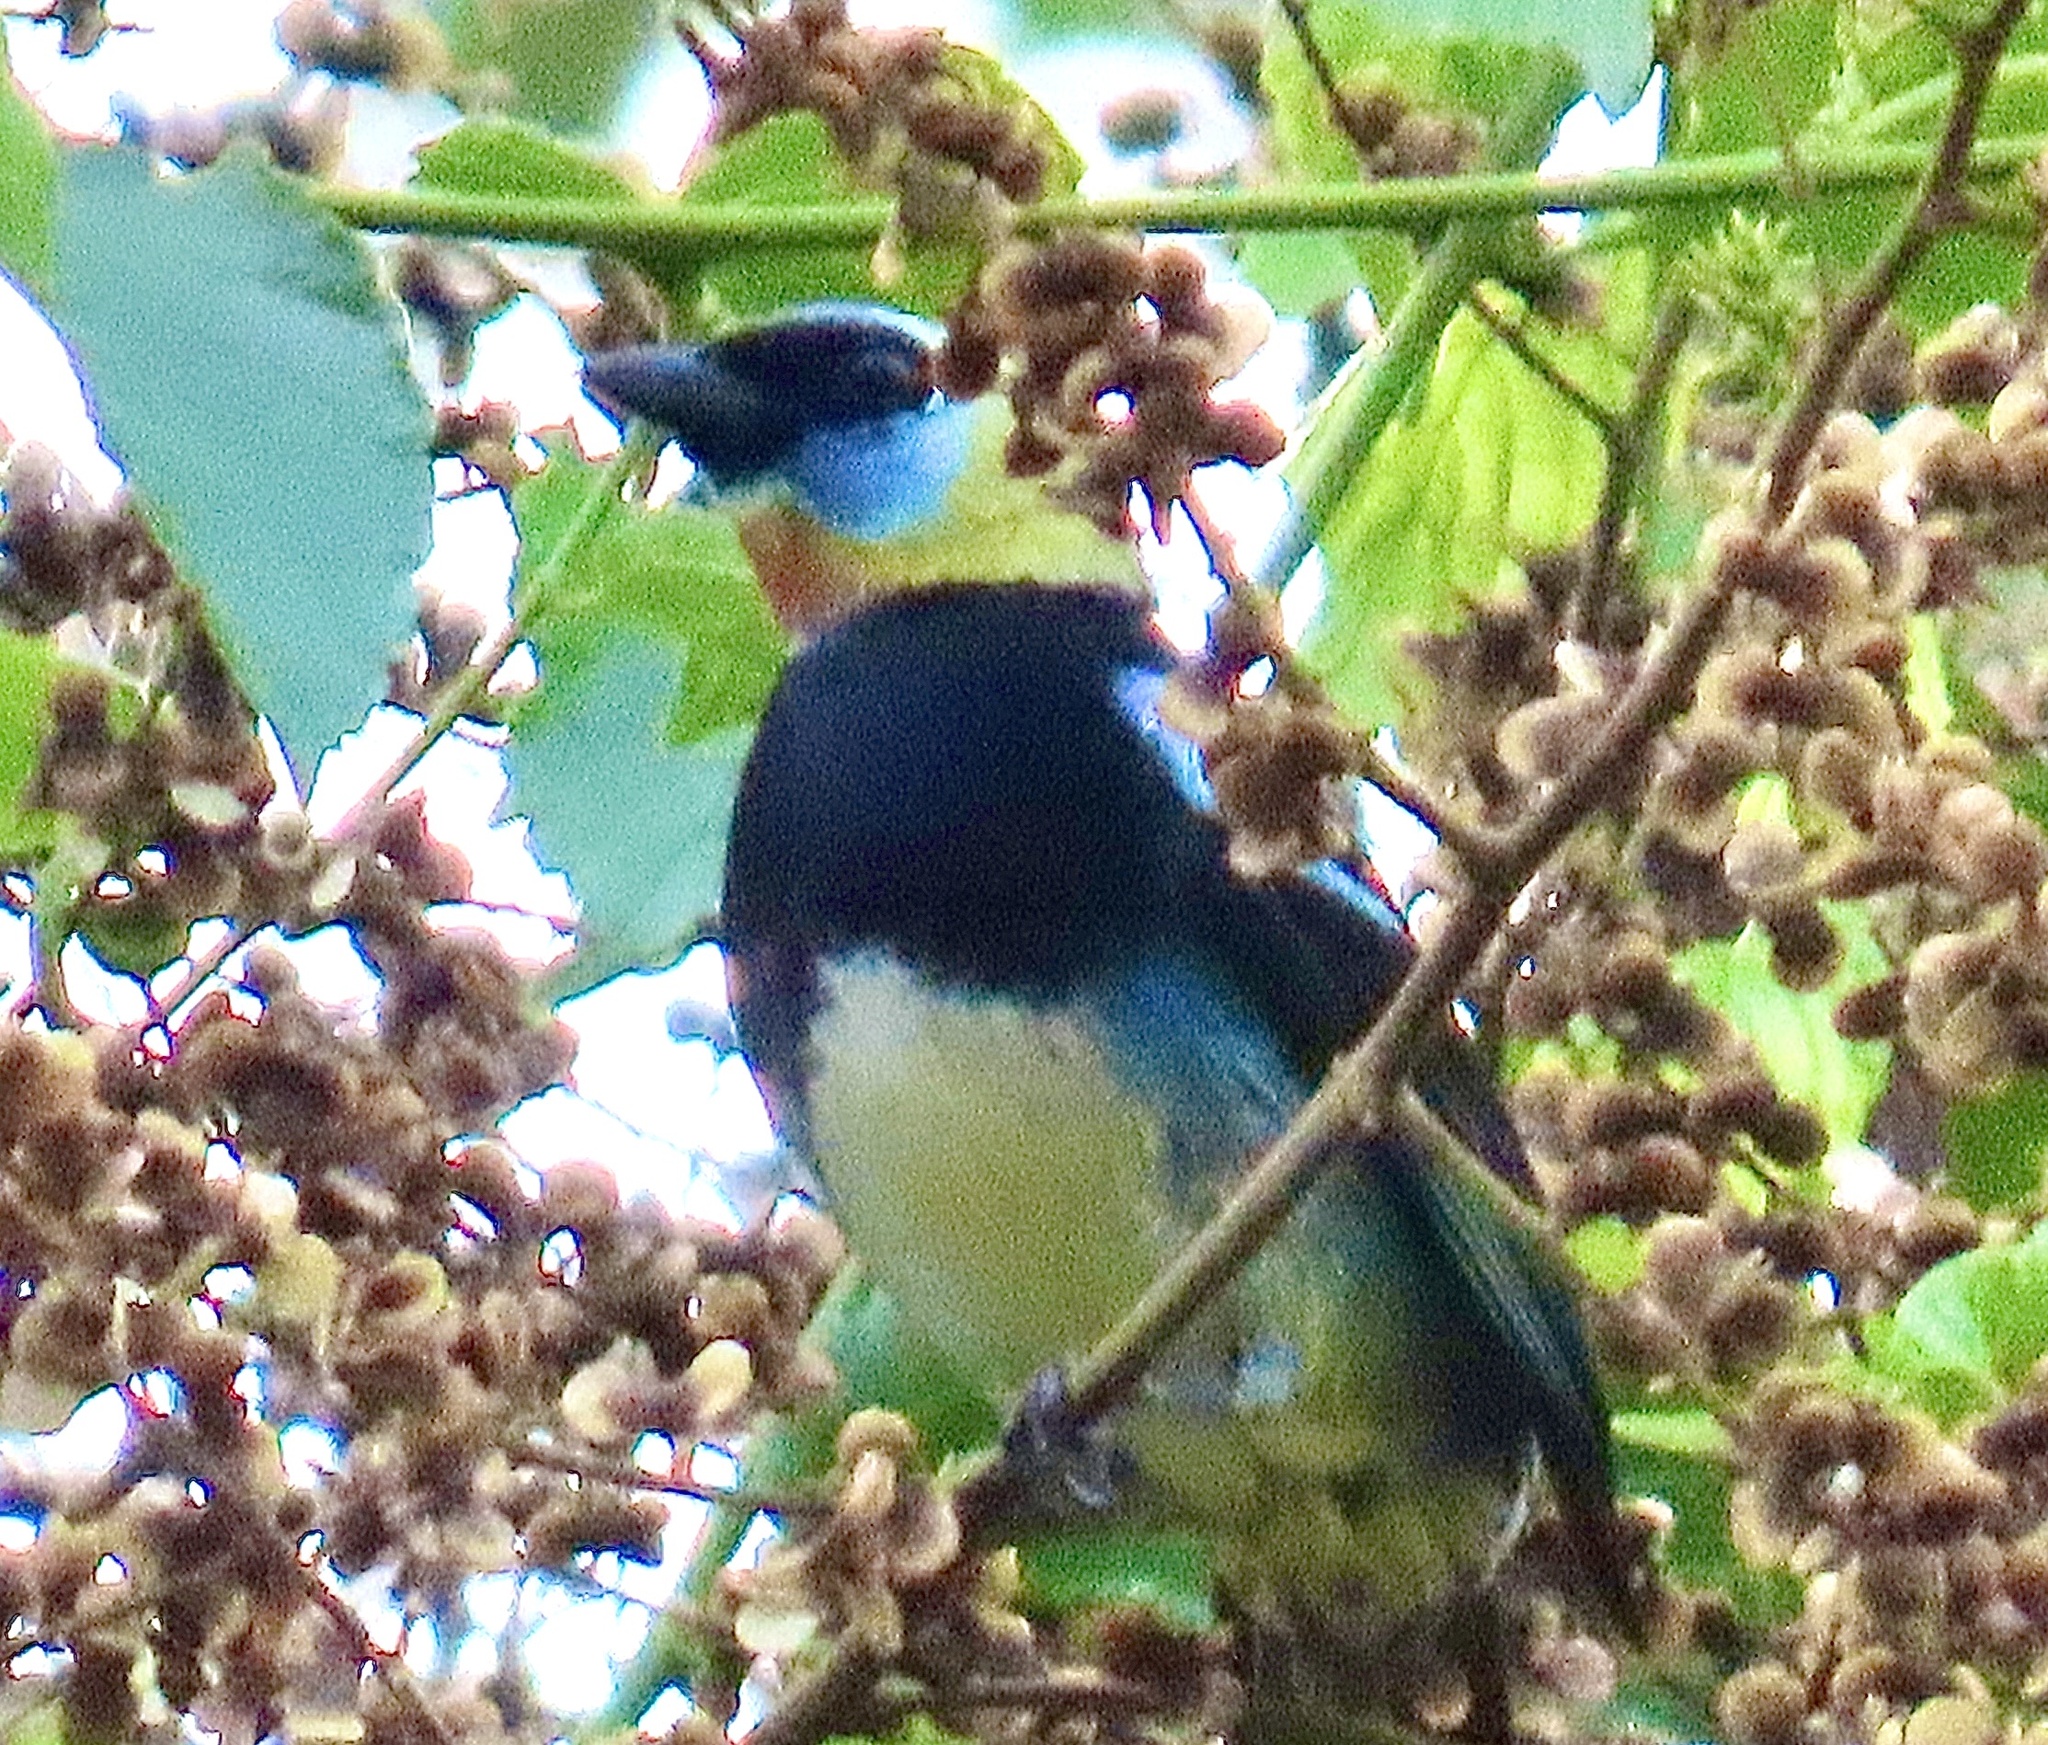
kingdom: Animalia
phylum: Chordata
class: Aves
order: Passeriformes
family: Thraupidae
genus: Stilpnia
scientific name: Stilpnia larvata
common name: Golden-hooded tanager
